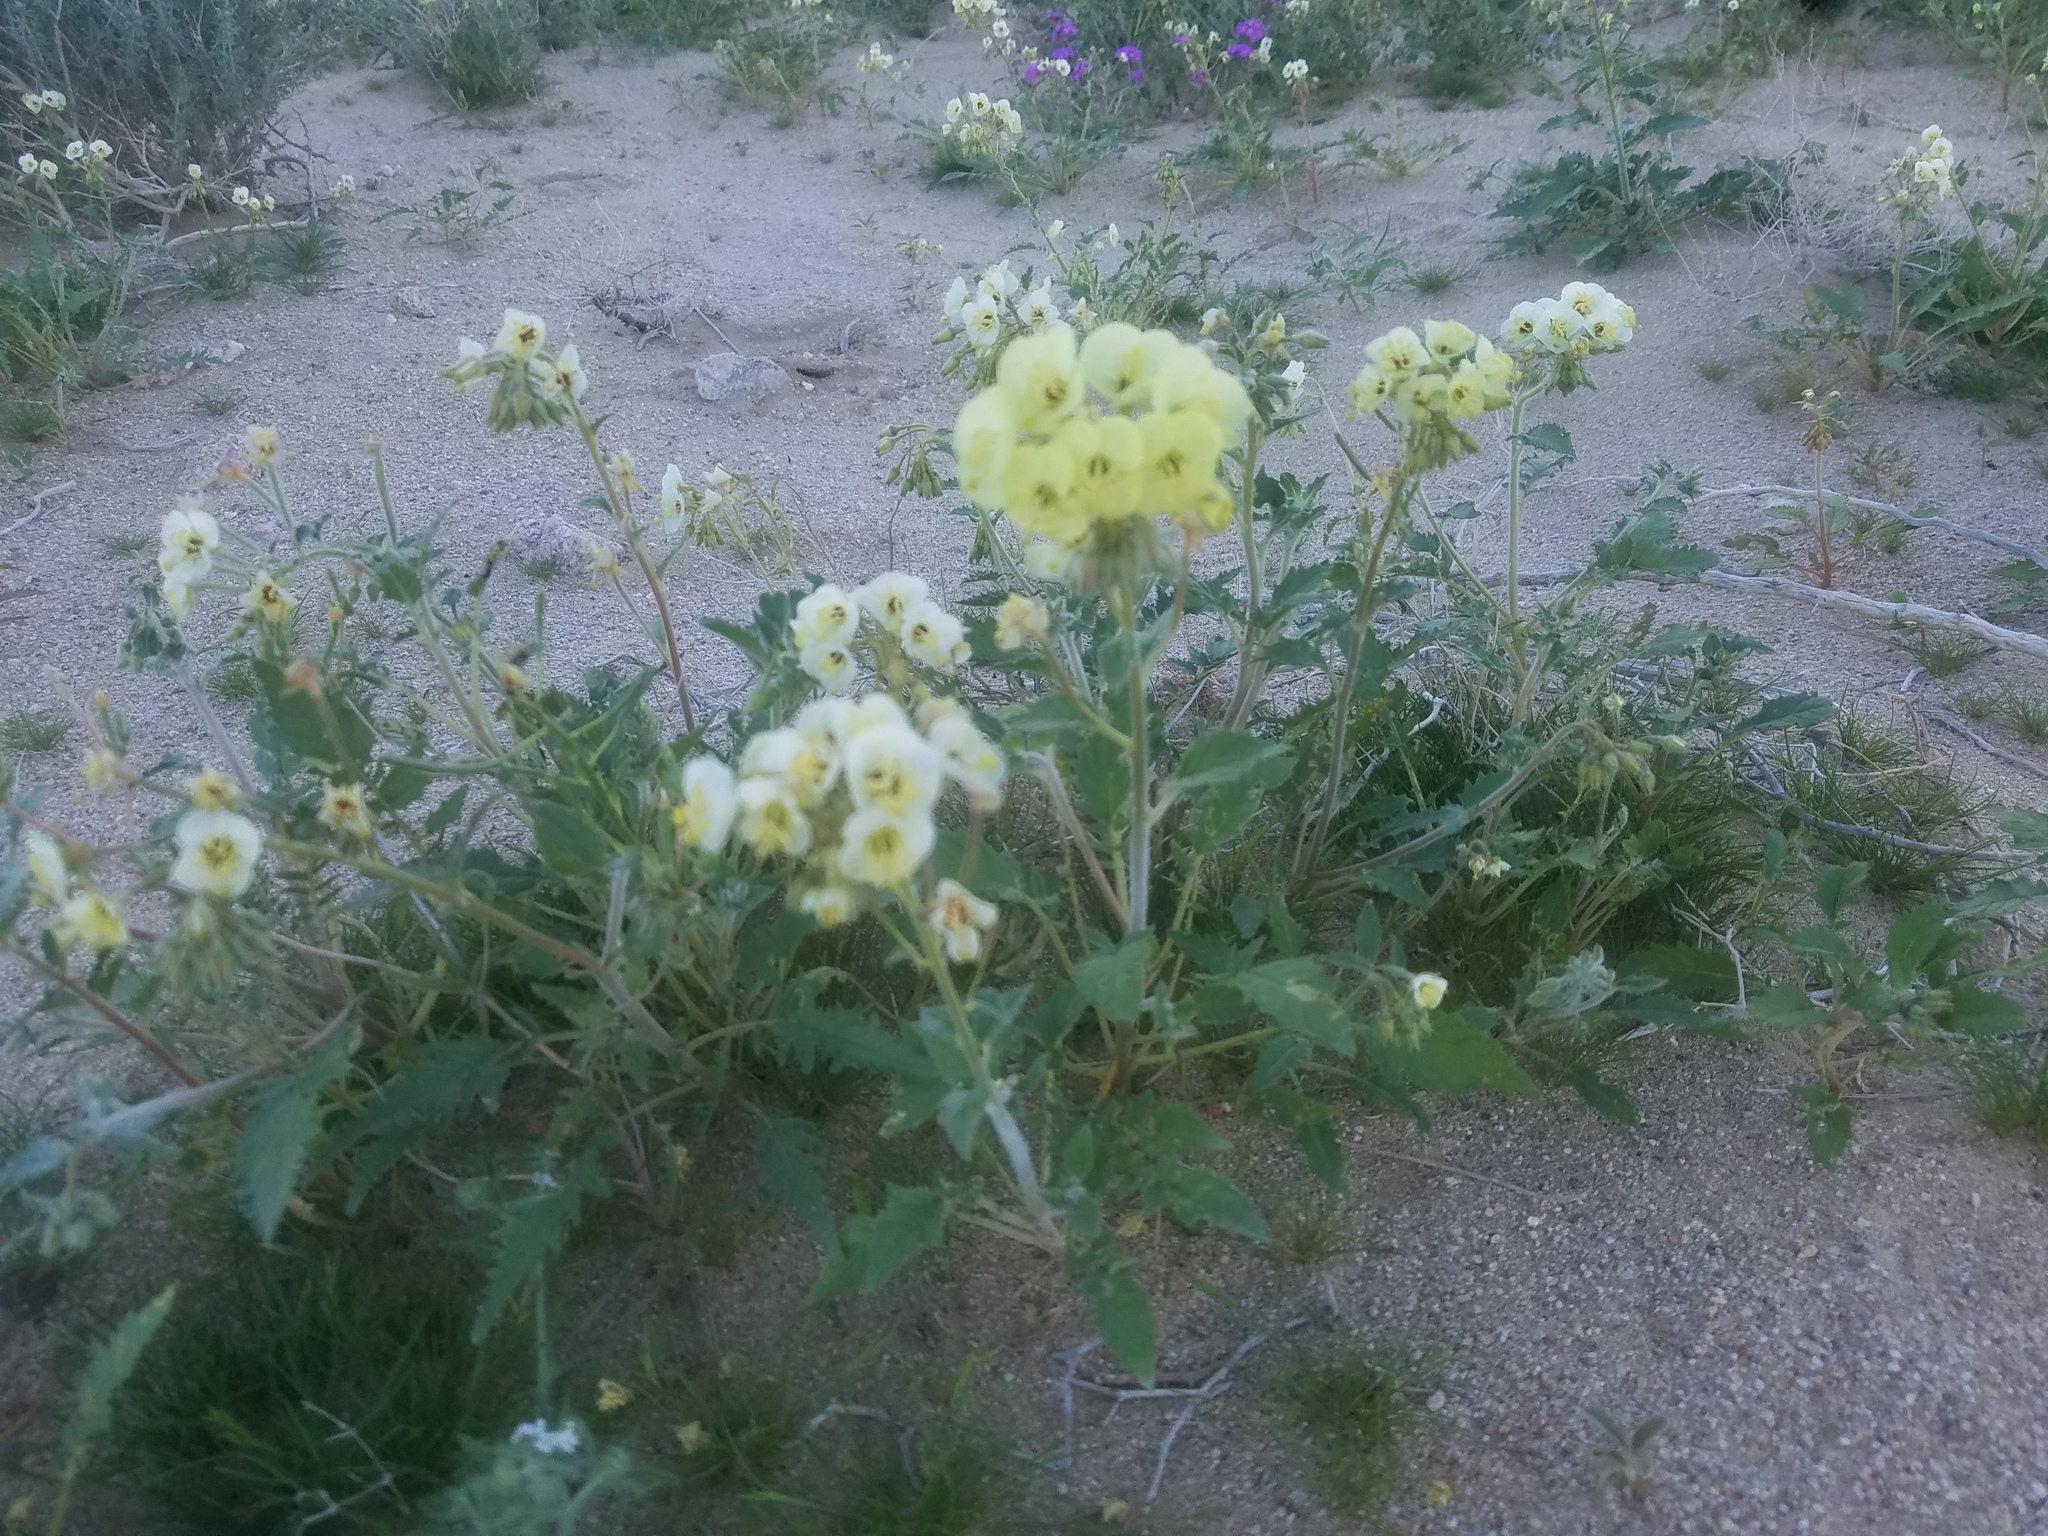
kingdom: Plantae
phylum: Tracheophyta
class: Magnoliopsida
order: Myrtales
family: Onagraceae
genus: Chylismia
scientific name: Chylismia claviformis
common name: Browneyes
